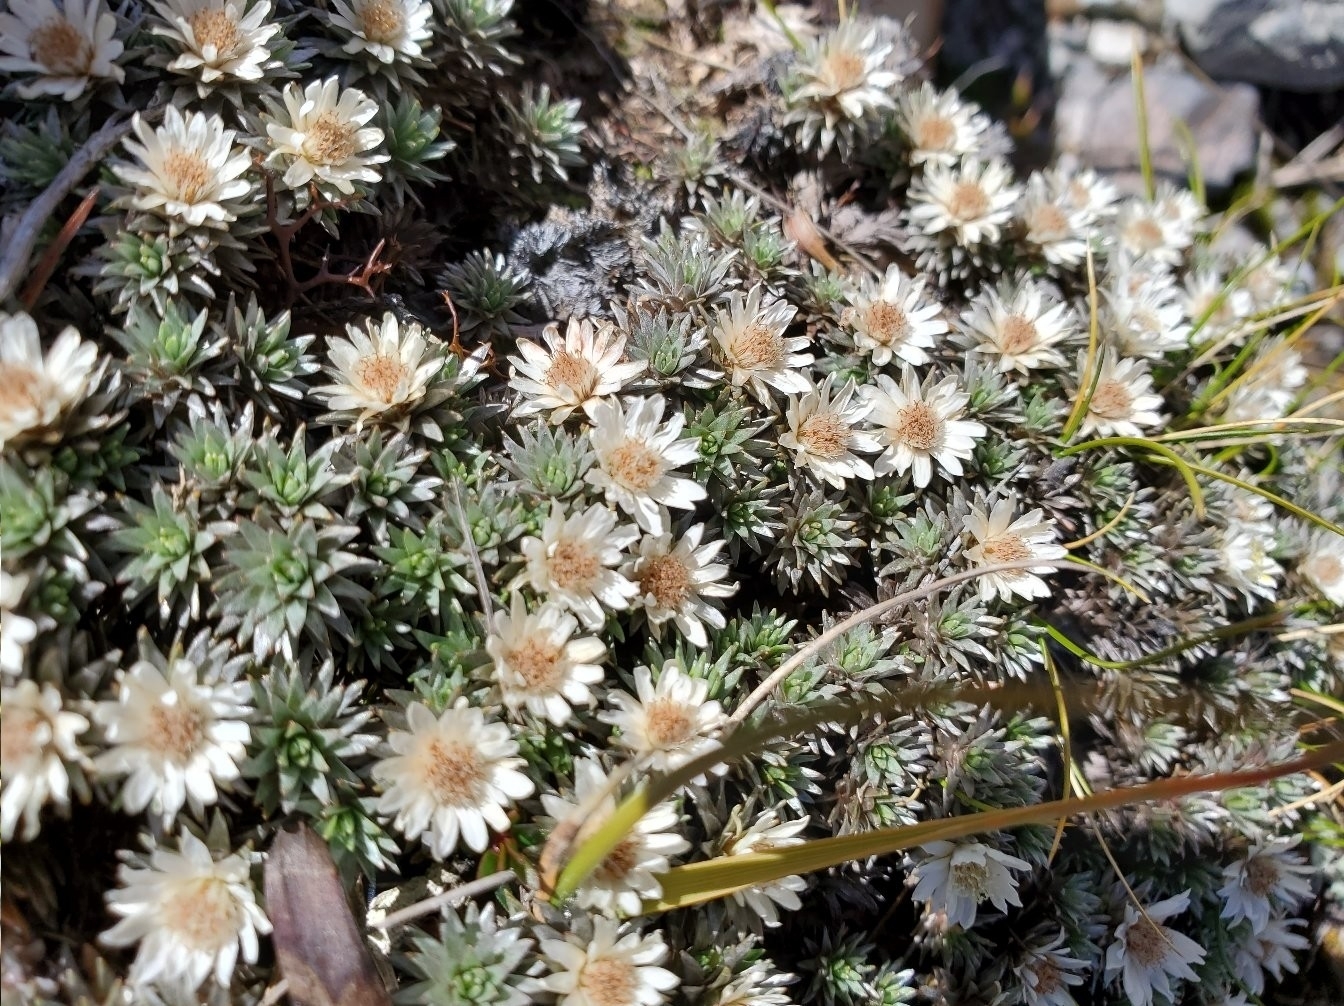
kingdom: Plantae
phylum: Tracheophyta
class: Magnoliopsida
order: Asterales
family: Asteraceae
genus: Raoulia
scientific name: Raoulia grandiflora
